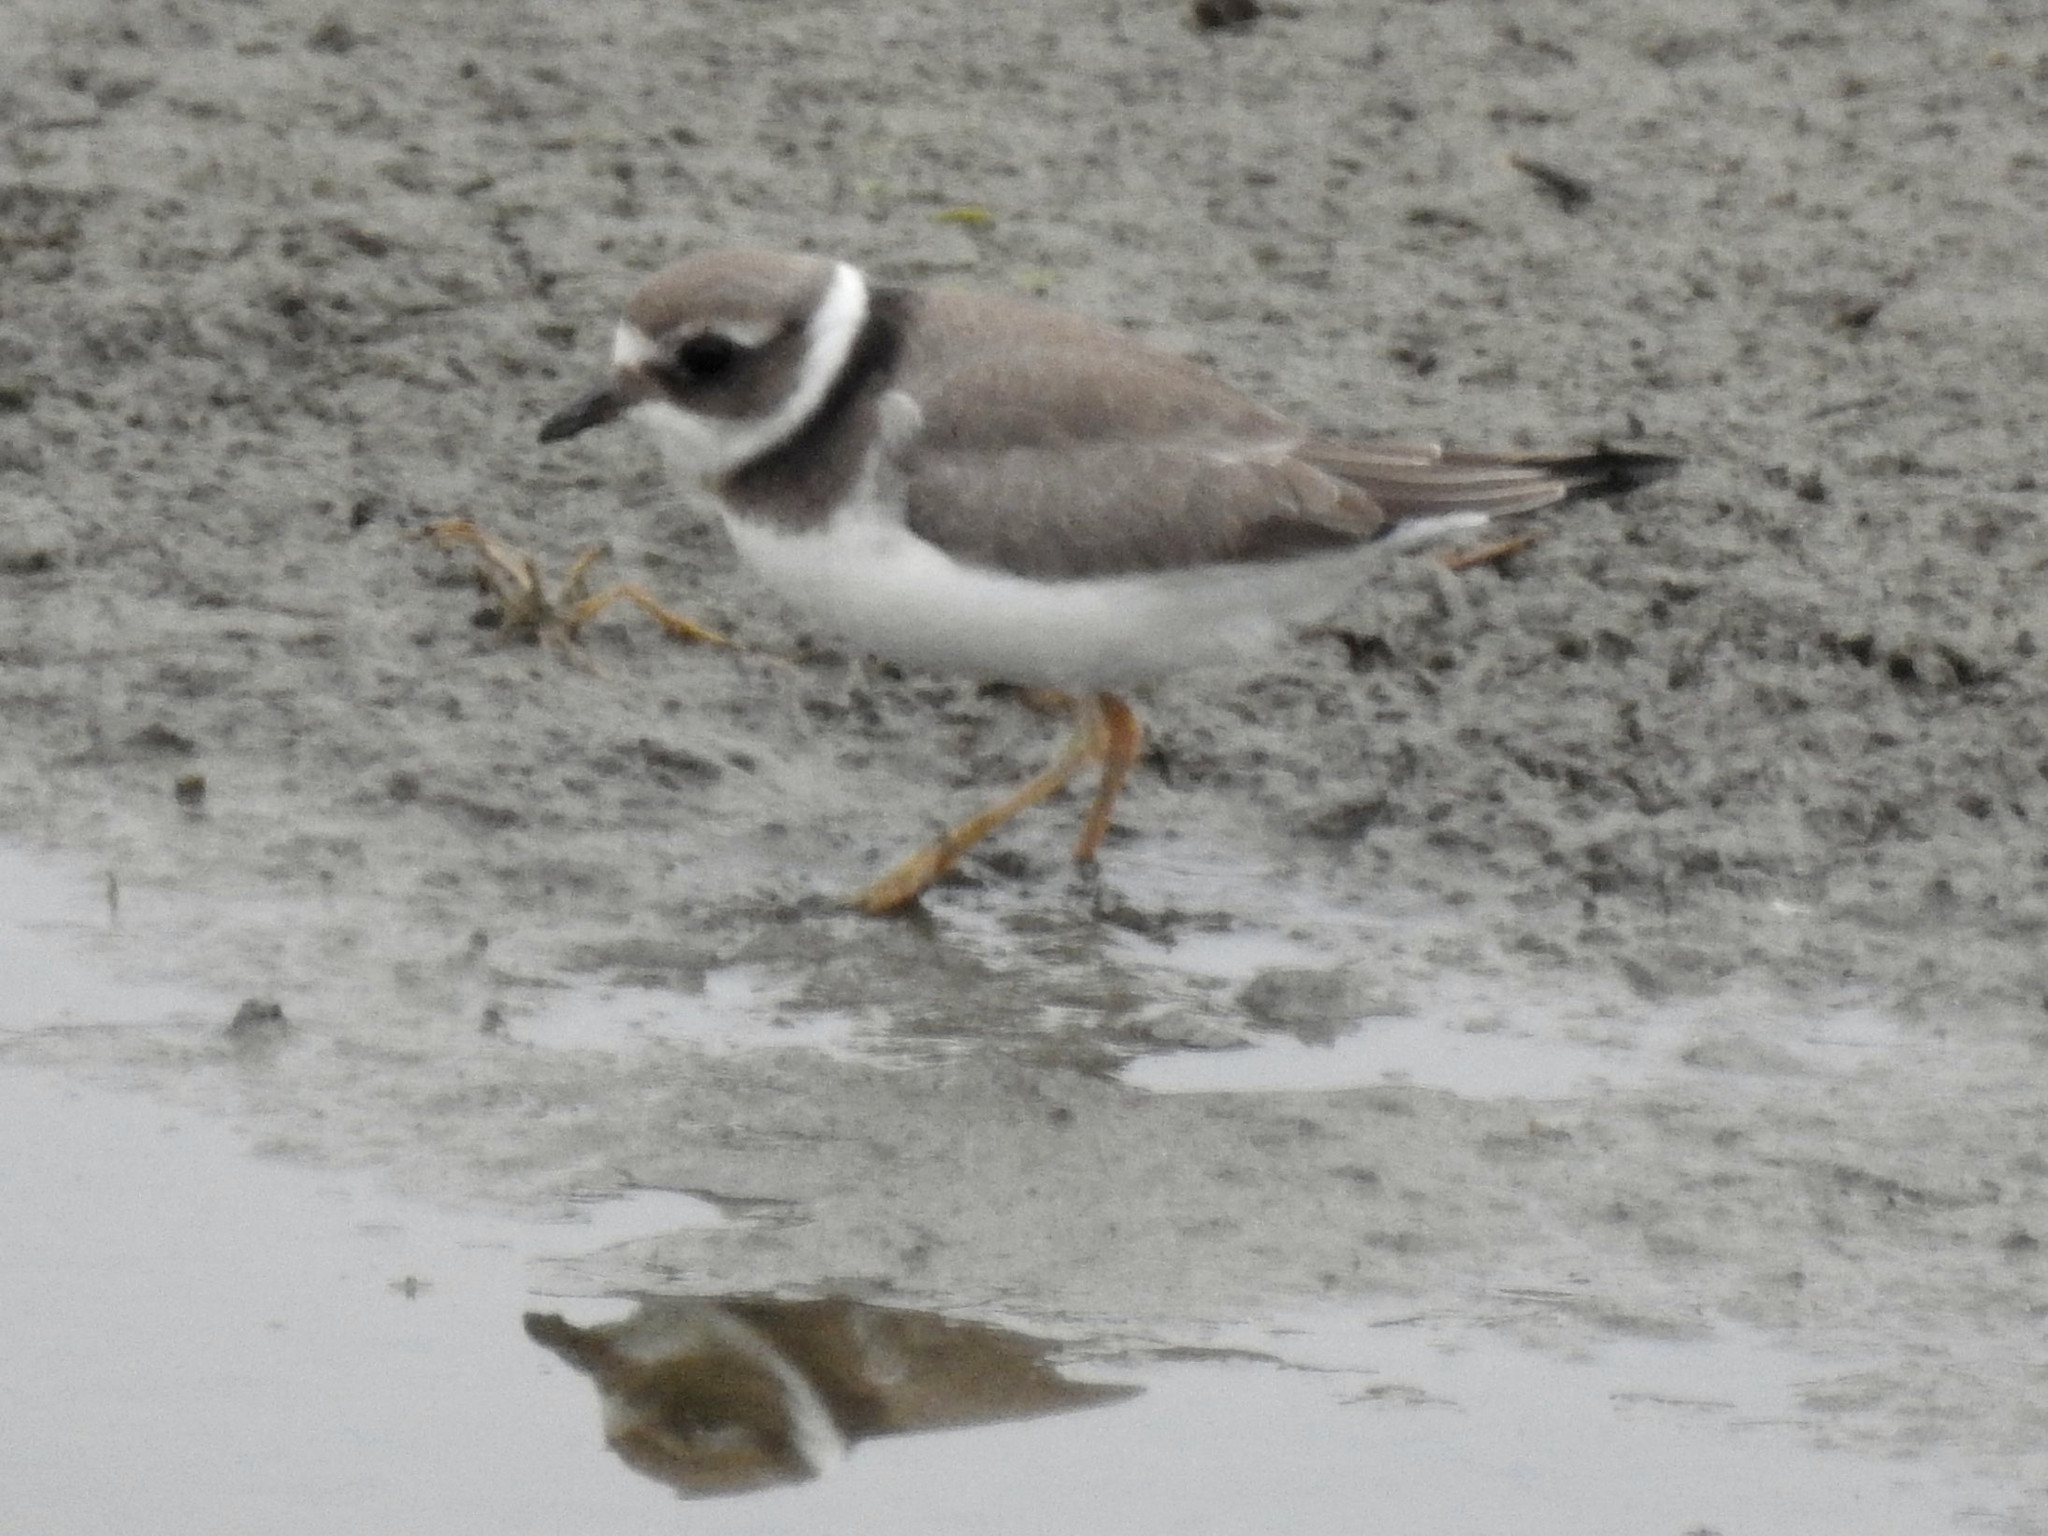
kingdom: Animalia
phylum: Chordata
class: Aves
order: Charadriiformes
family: Charadriidae
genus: Charadrius
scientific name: Charadrius hiaticula
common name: Common ringed plover
